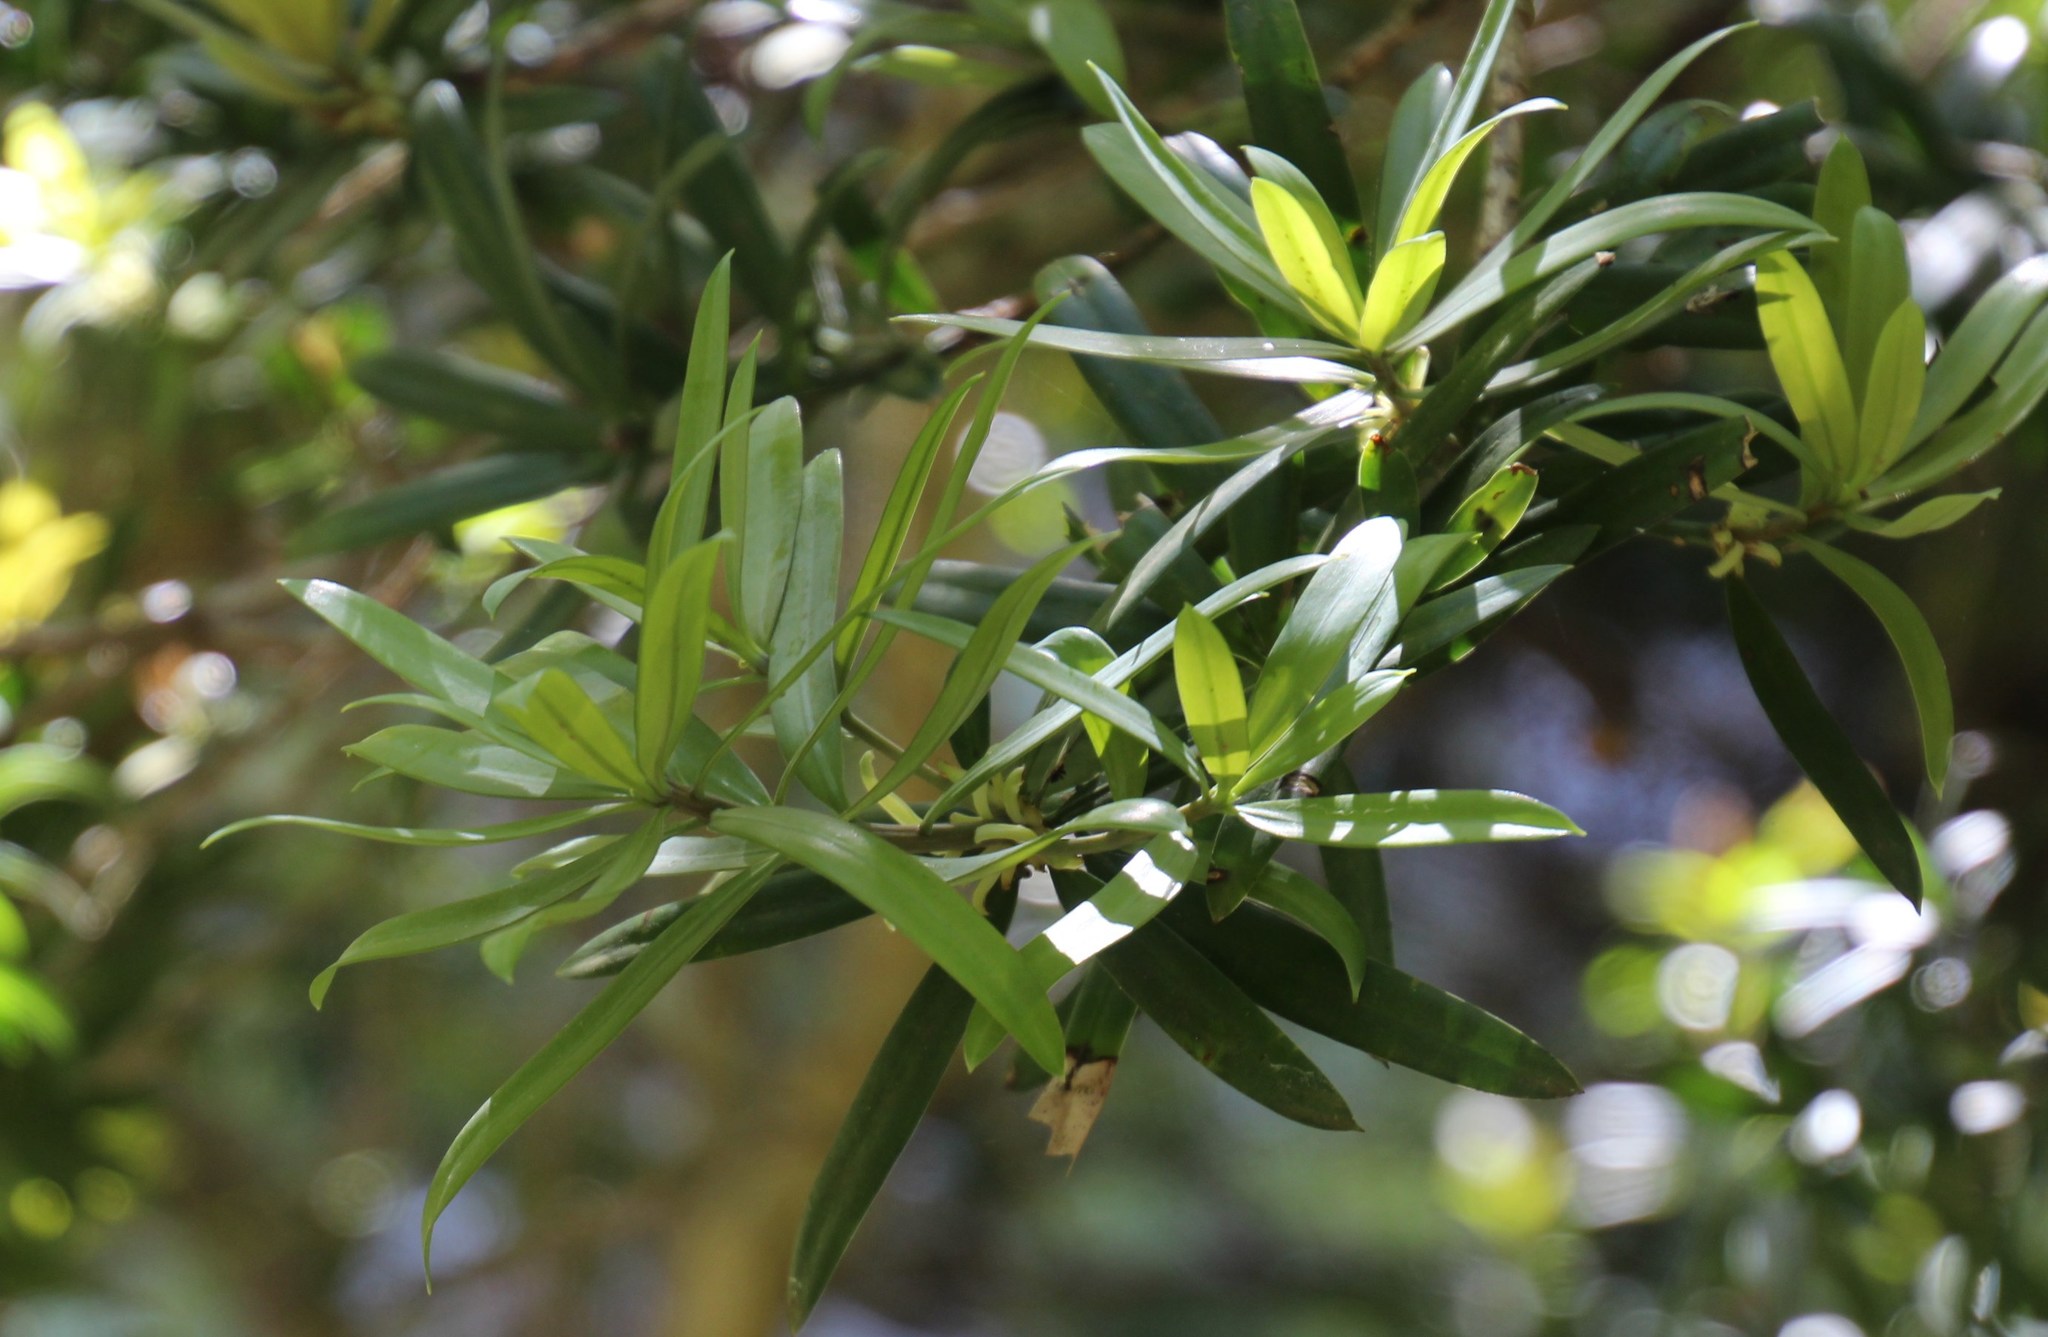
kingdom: Plantae
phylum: Tracheophyta
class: Pinopsida
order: Pinales
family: Podocarpaceae
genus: Podocarpus
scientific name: Podocarpus latifolius
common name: True yellowwood
